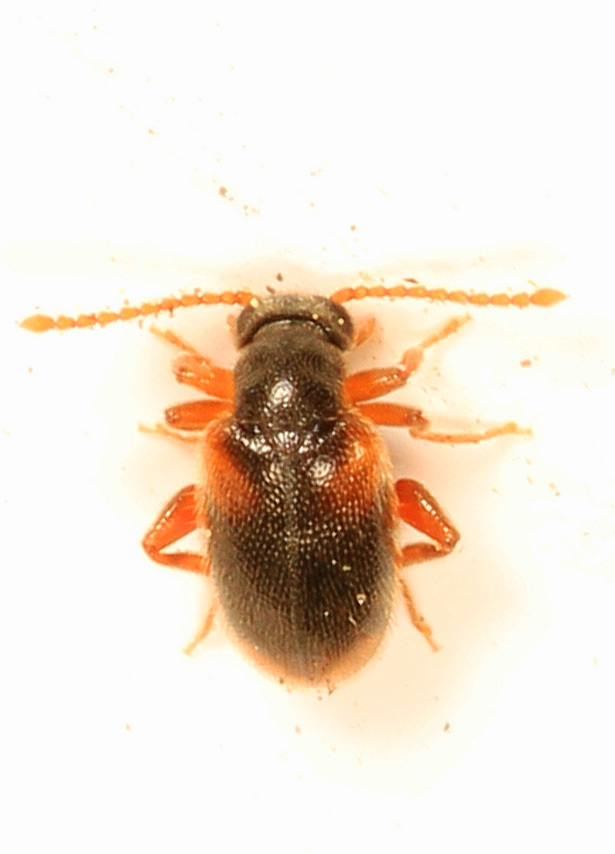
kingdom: Animalia
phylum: Arthropoda
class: Insecta
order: Coleoptera
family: Aderidae
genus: Zonantes
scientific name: Zonantes fasciatus
